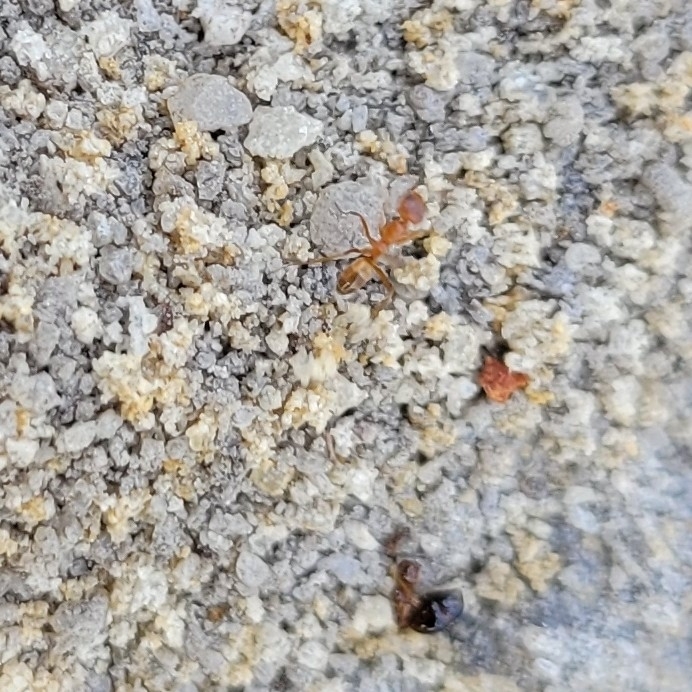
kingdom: Animalia
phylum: Arthropoda
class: Insecta
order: Hymenoptera
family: Formicidae
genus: Dorymyrmex
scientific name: Dorymyrmex bureni
